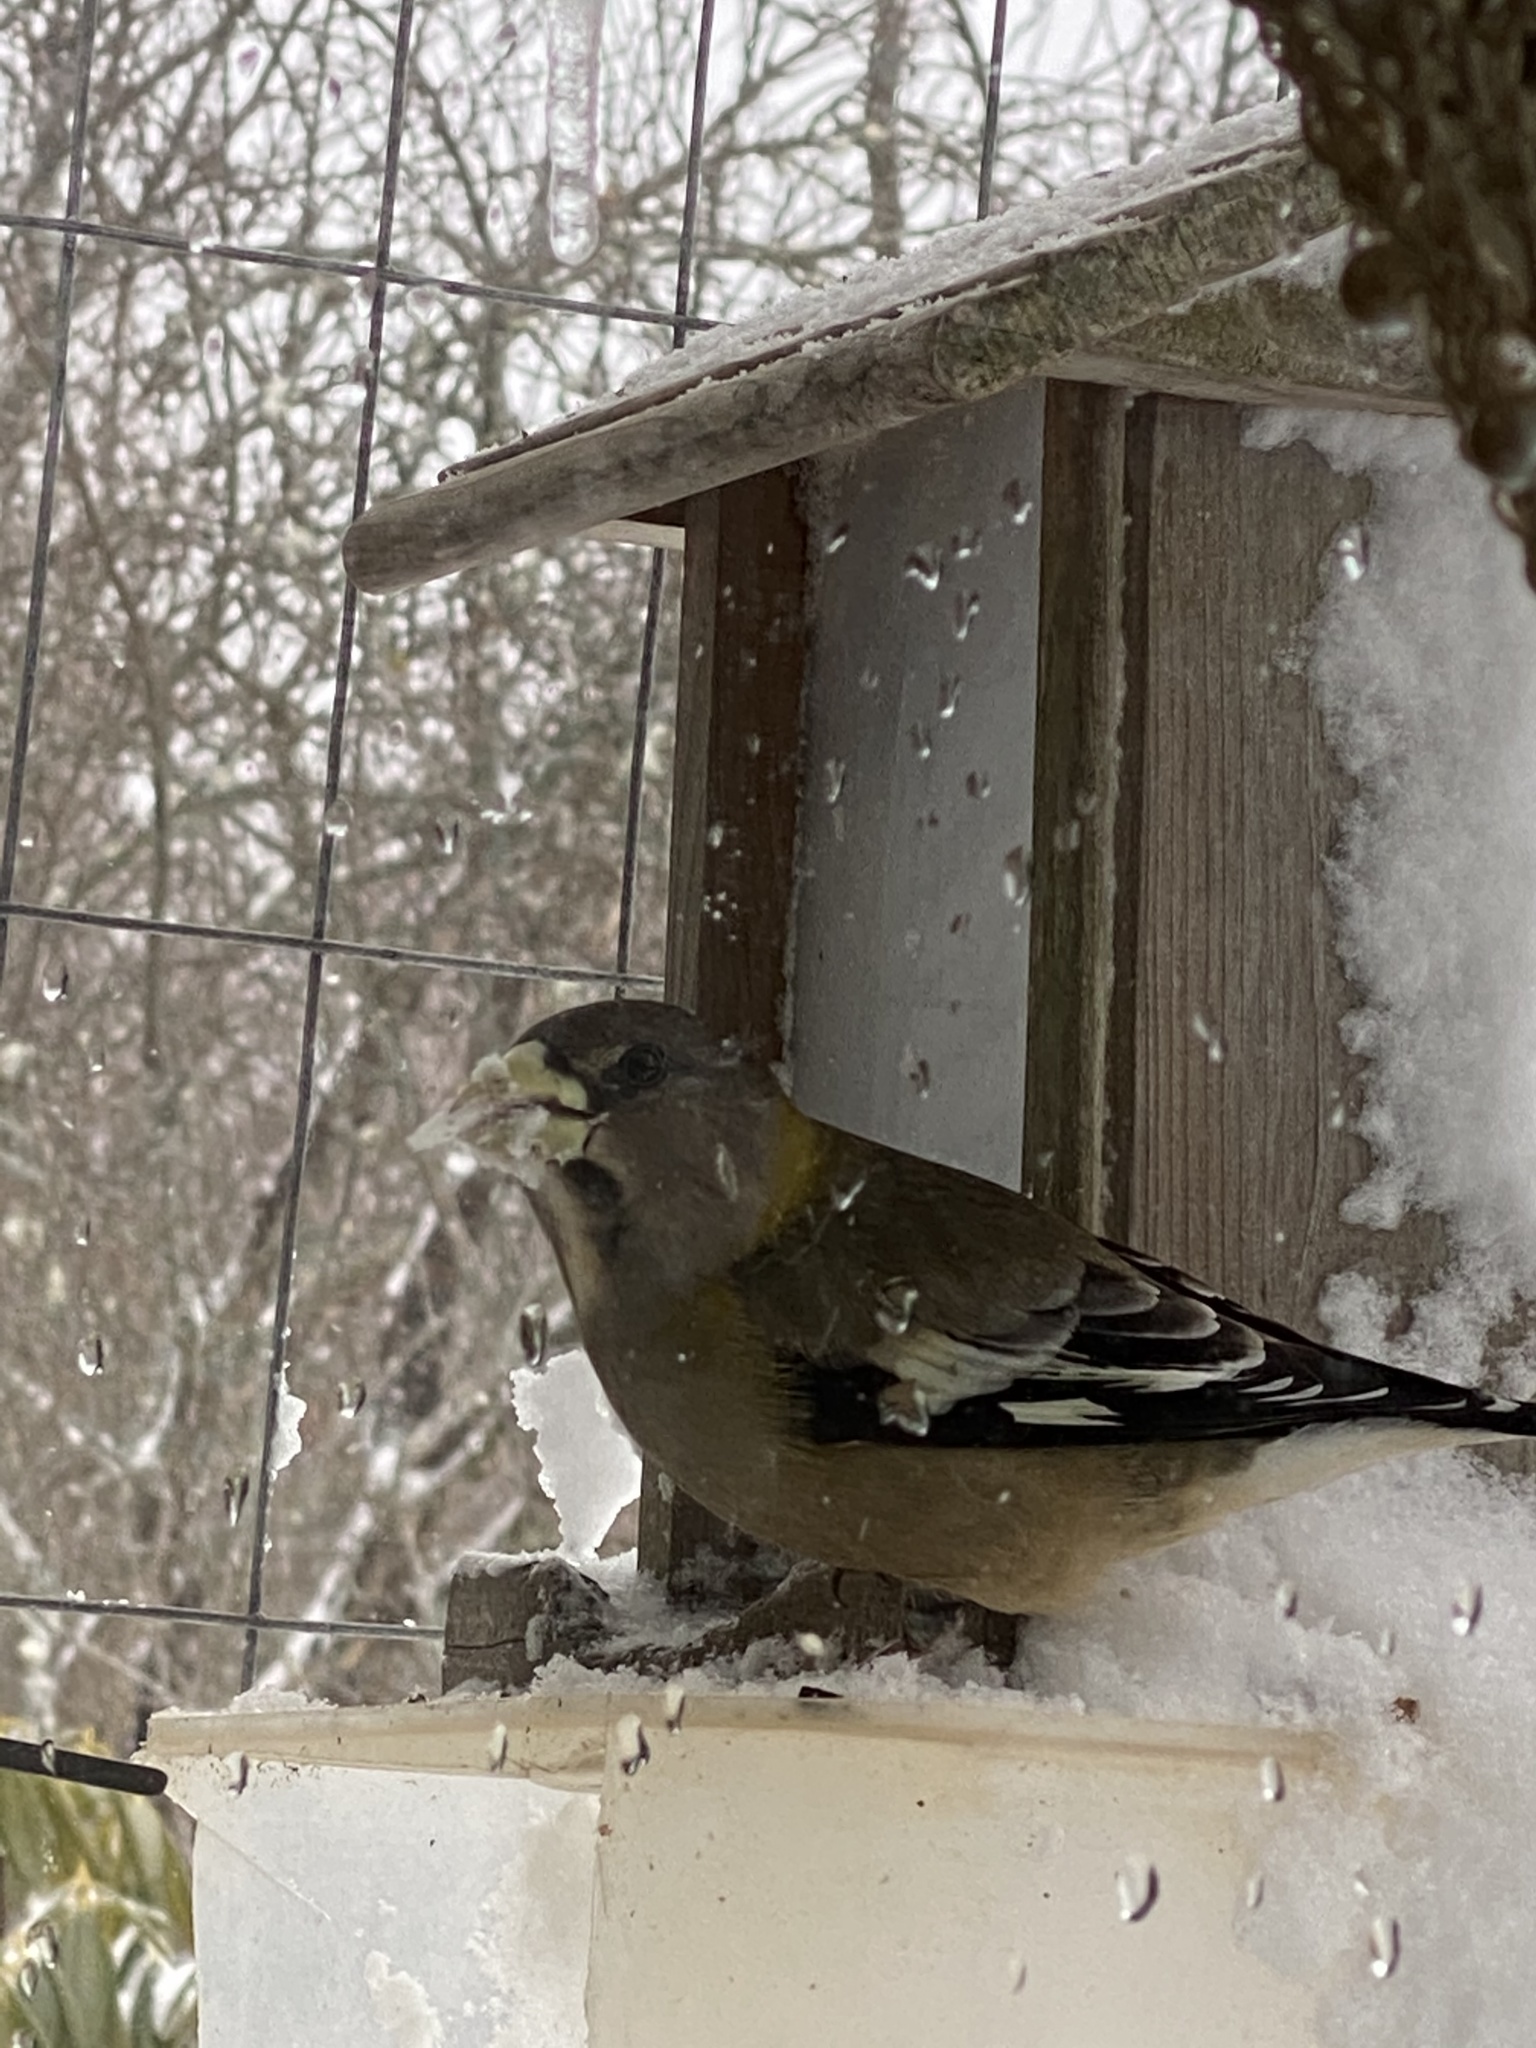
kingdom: Animalia
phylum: Chordata
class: Aves
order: Passeriformes
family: Fringillidae
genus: Hesperiphona
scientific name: Hesperiphona vespertina
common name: Evening grosbeak
